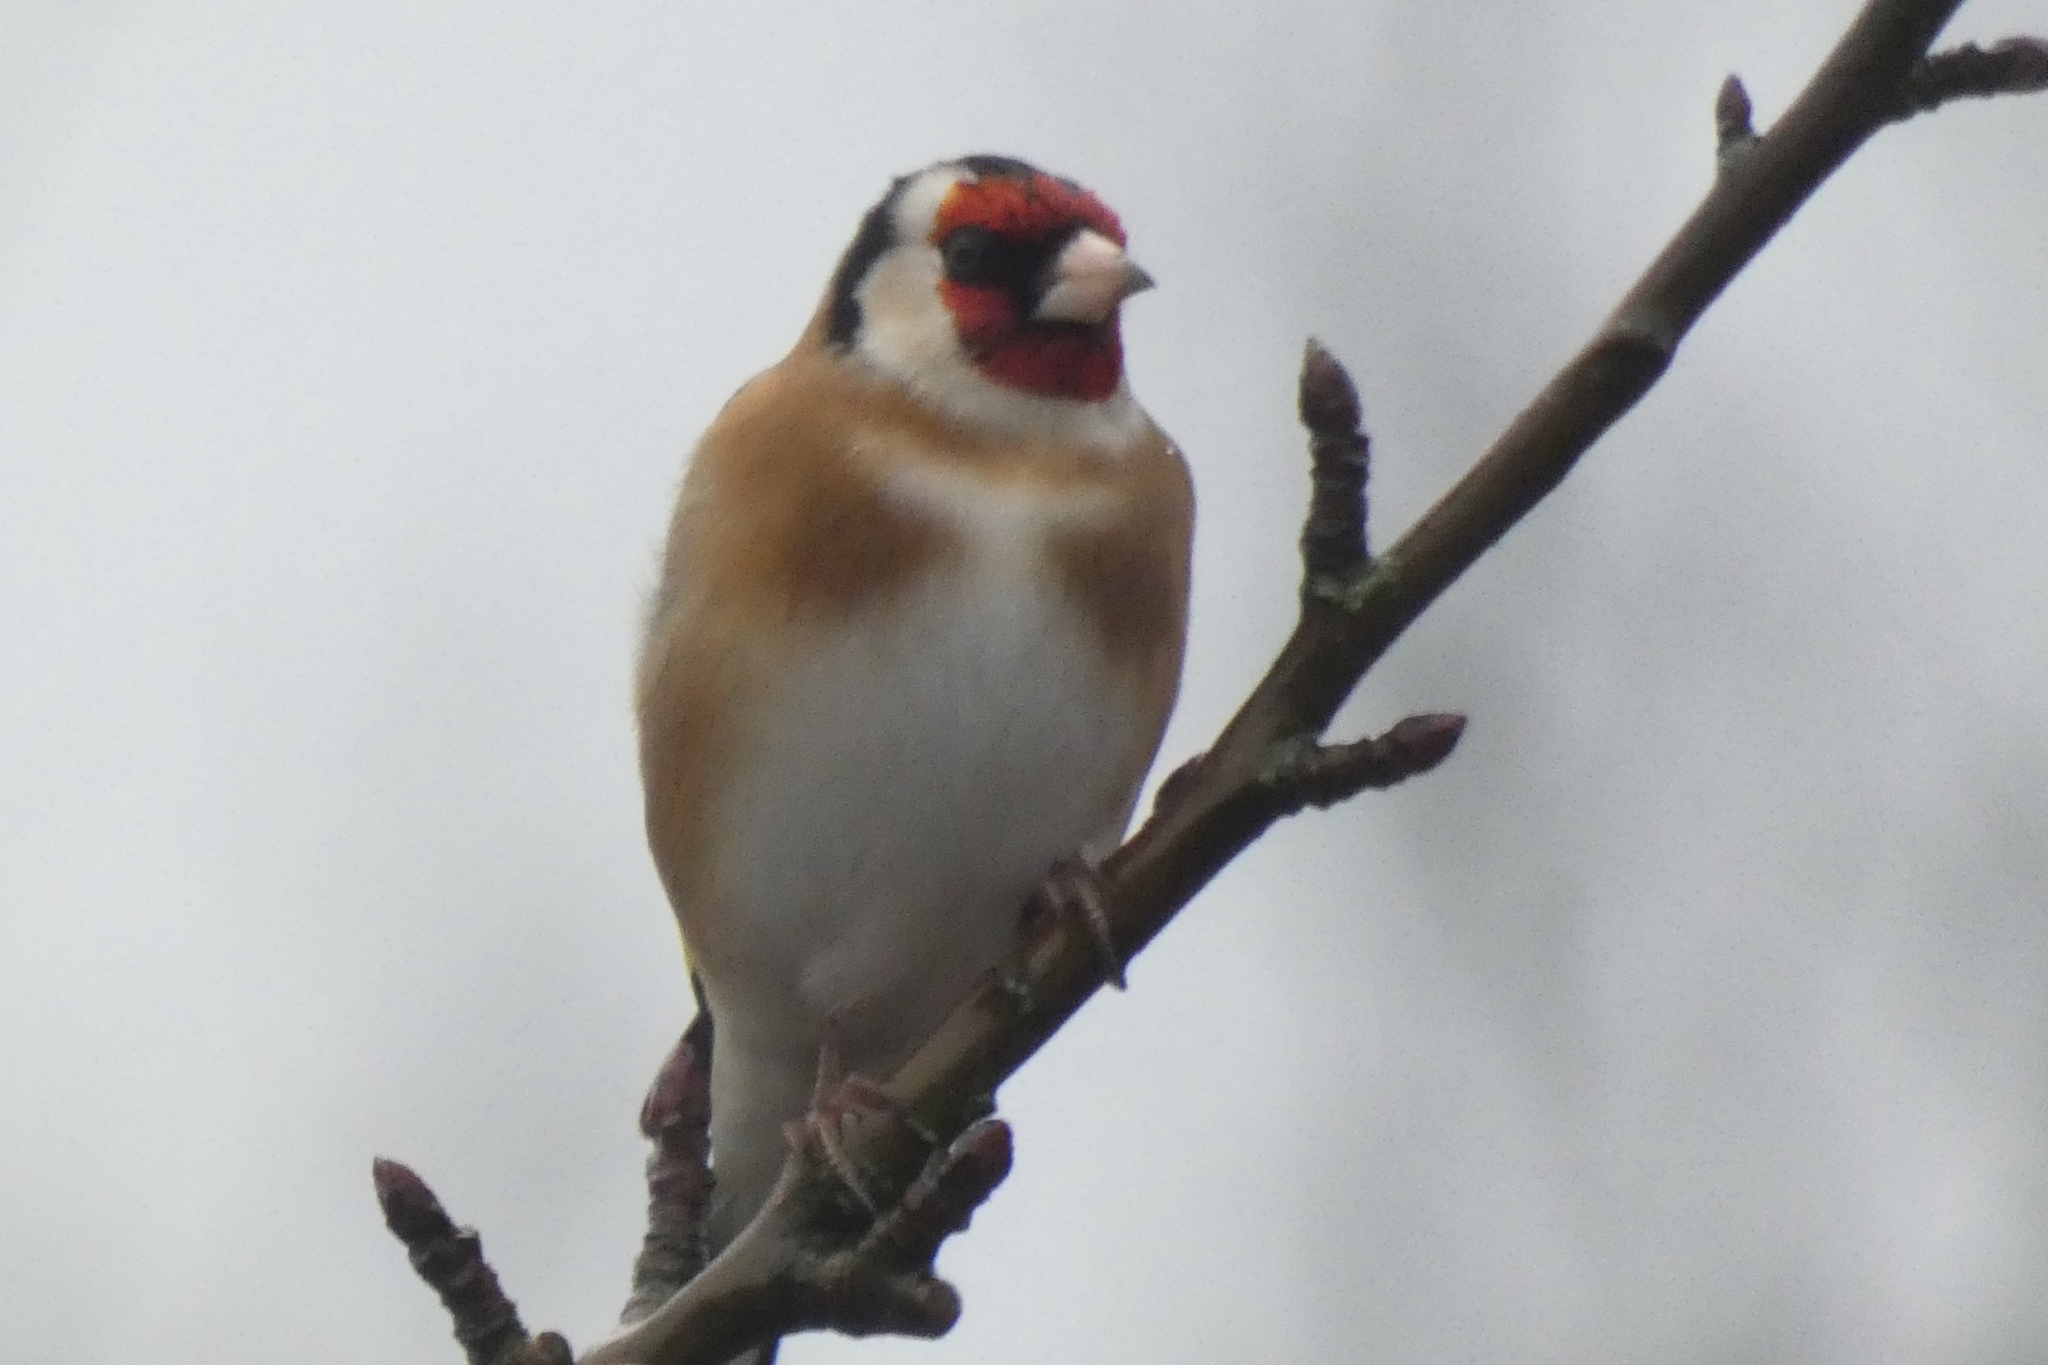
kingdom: Animalia
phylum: Chordata
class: Aves
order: Passeriformes
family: Fringillidae
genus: Carduelis
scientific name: Carduelis carduelis
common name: European goldfinch
